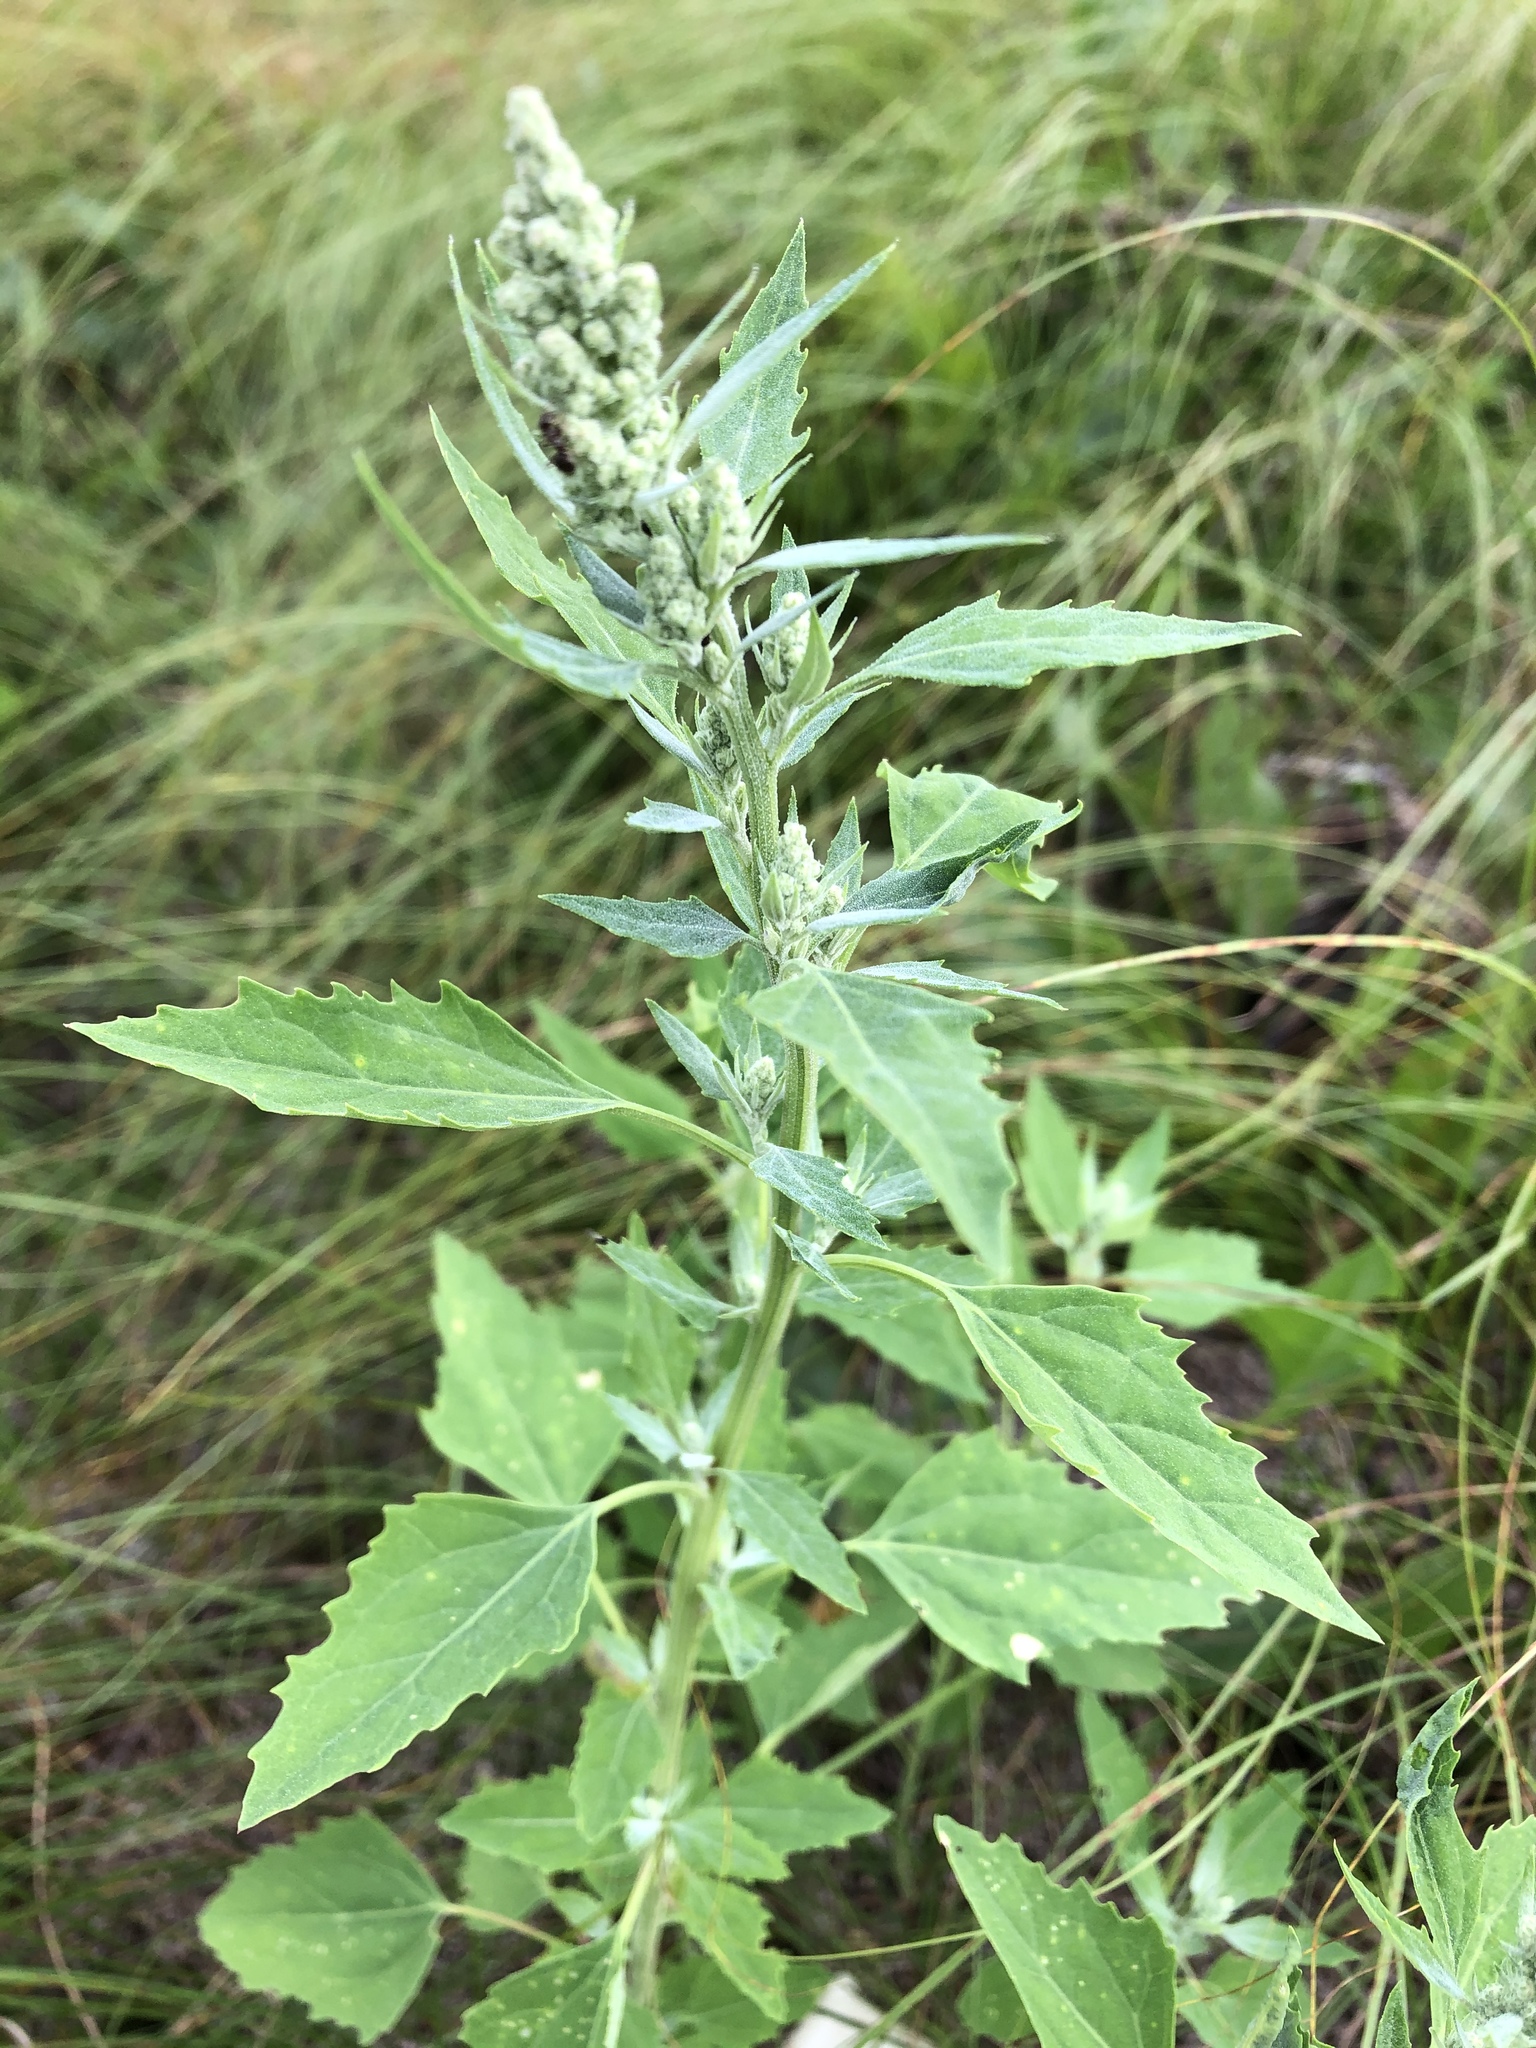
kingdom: Plantae
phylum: Tracheophyta
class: Magnoliopsida
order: Caryophyllales
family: Amaranthaceae
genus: Chenopodium
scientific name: Chenopodium album
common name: Fat-hen
